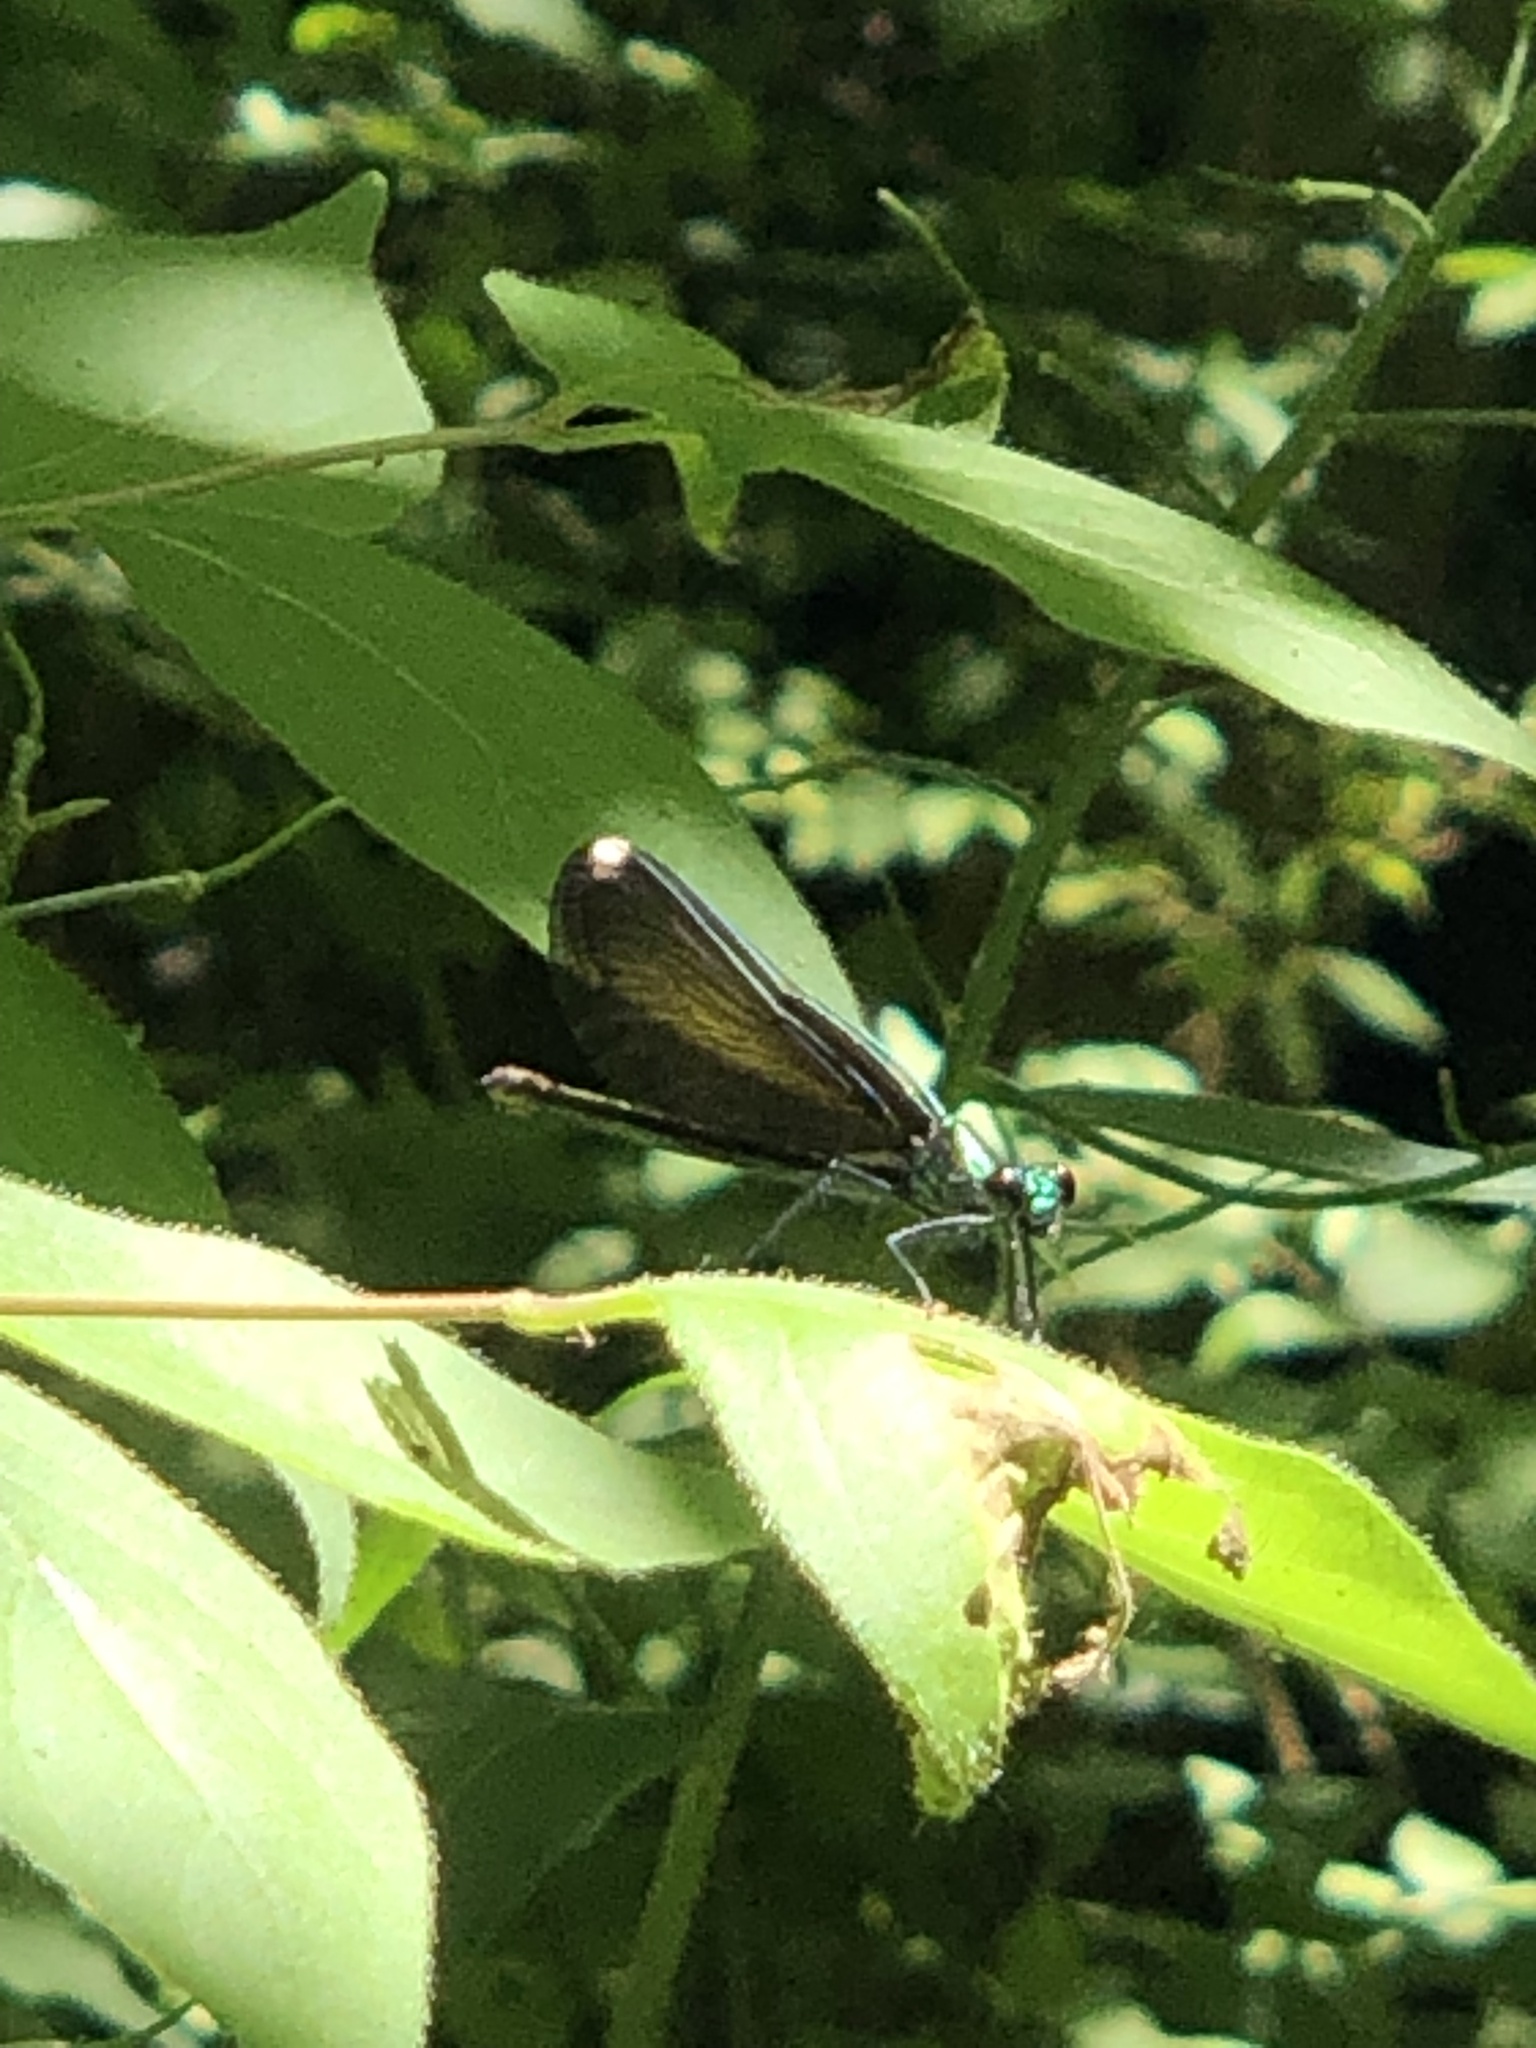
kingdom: Animalia
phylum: Arthropoda
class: Insecta
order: Odonata
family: Calopterygidae
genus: Calopteryx
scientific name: Calopteryx maculata
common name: Ebony jewelwing
